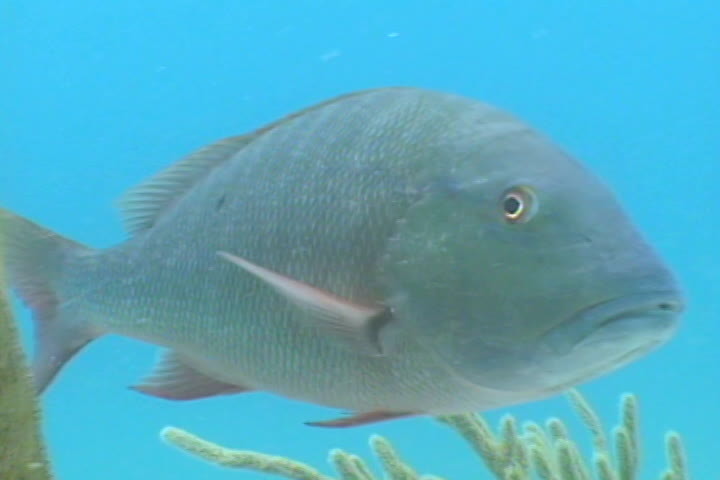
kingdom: Animalia
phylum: Chordata
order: Perciformes
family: Lutjanidae
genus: Lutjanus
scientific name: Lutjanus analis
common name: Mutton snapper
